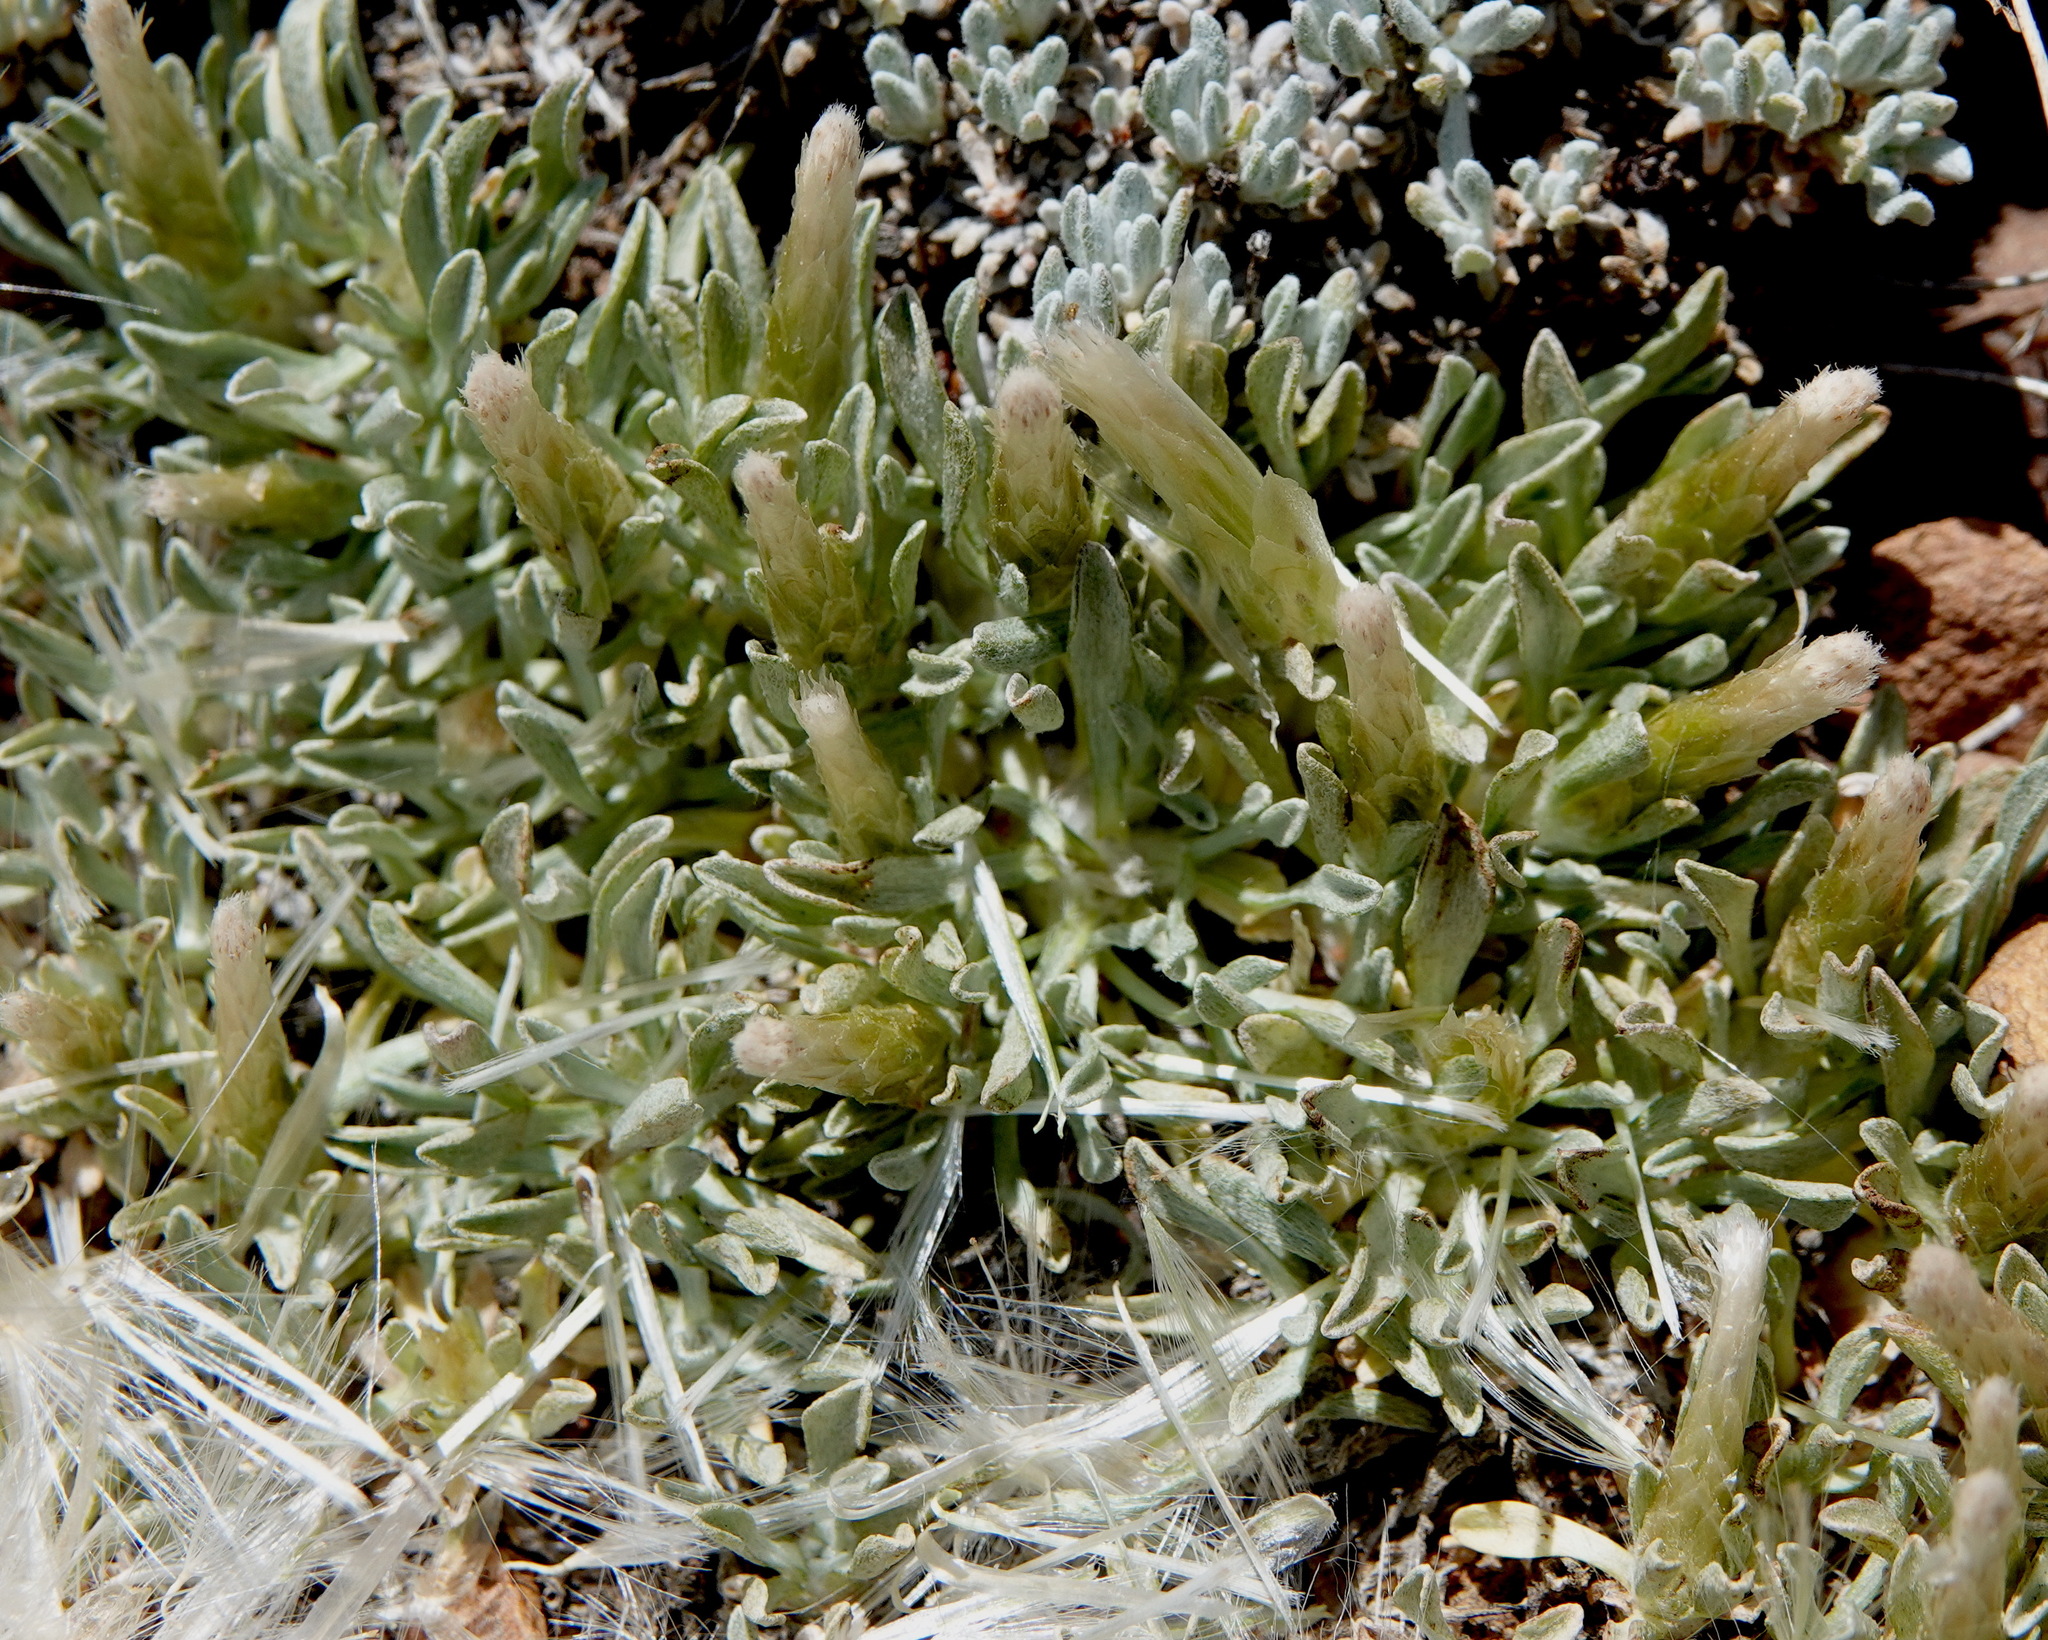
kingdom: Plantae
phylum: Tracheophyta
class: Magnoliopsida
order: Asterales
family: Asteraceae
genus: Antennaria
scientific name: Antennaria dimorpha
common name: Cushion pussytoes
